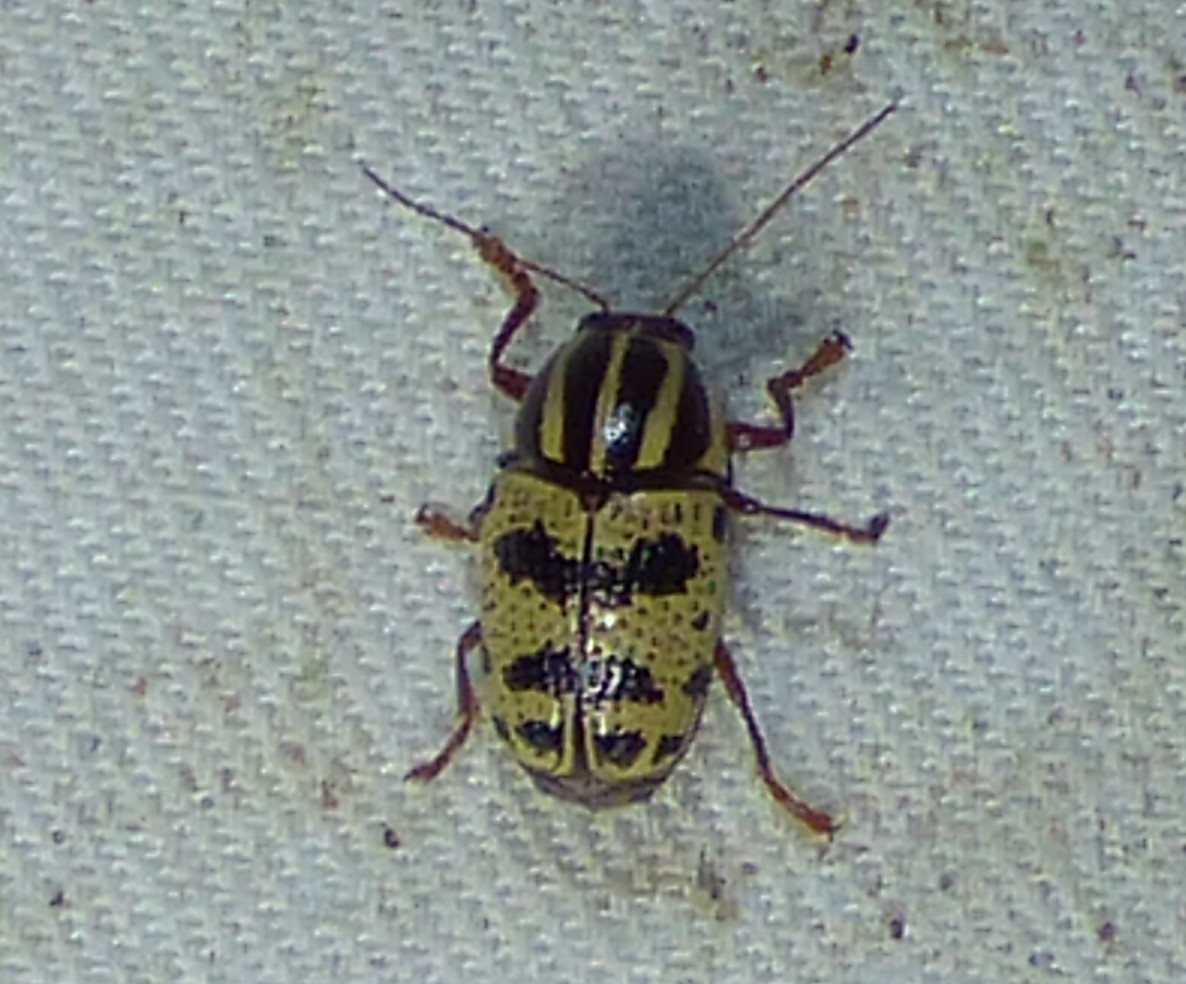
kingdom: Animalia
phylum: Arthropoda
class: Insecta
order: Coleoptera
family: Chrysomelidae
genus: Cryptocephalus
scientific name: Cryptocephalus leucomelas
